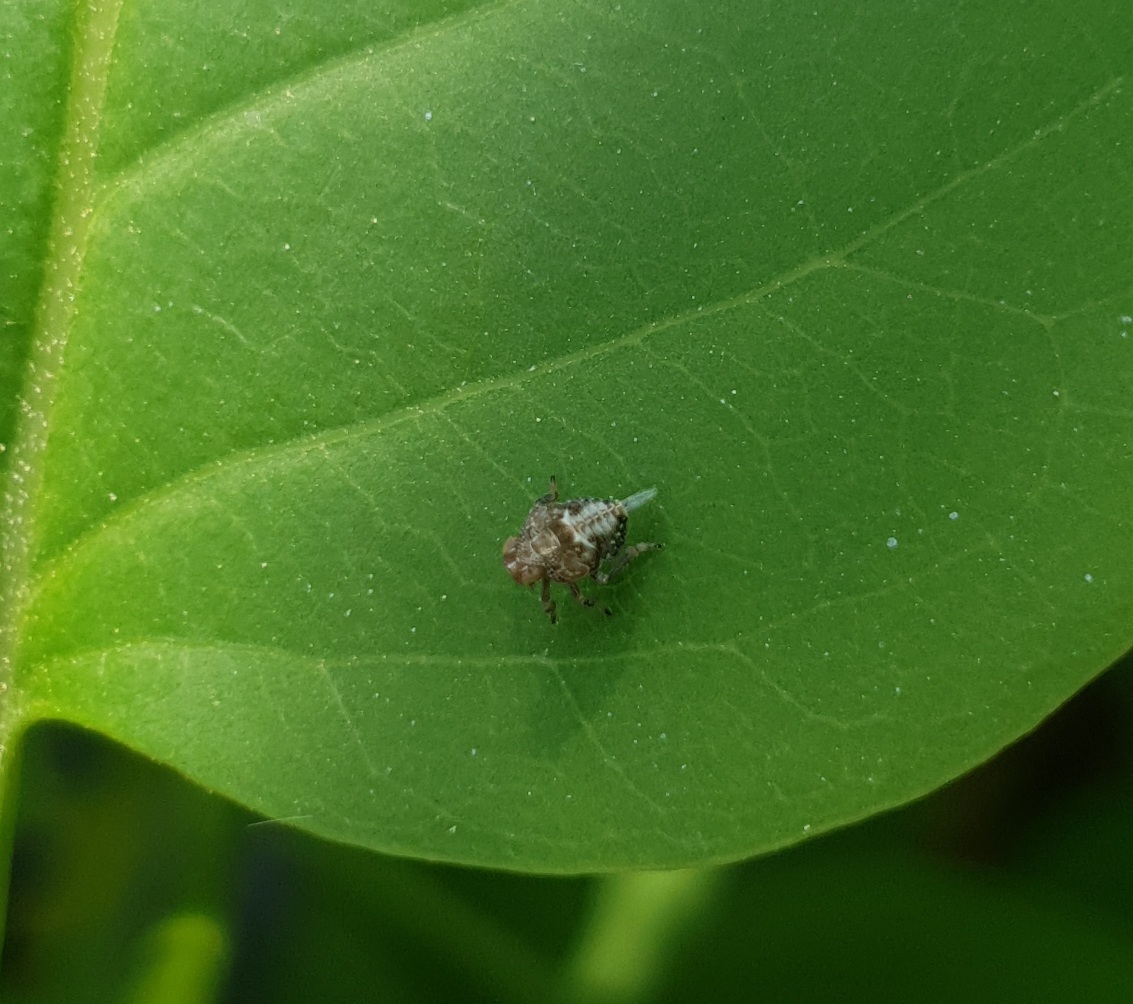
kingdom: Animalia
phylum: Arthropoda
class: Insecta
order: Hemiptera
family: Issidae
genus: Issus
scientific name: Issus
